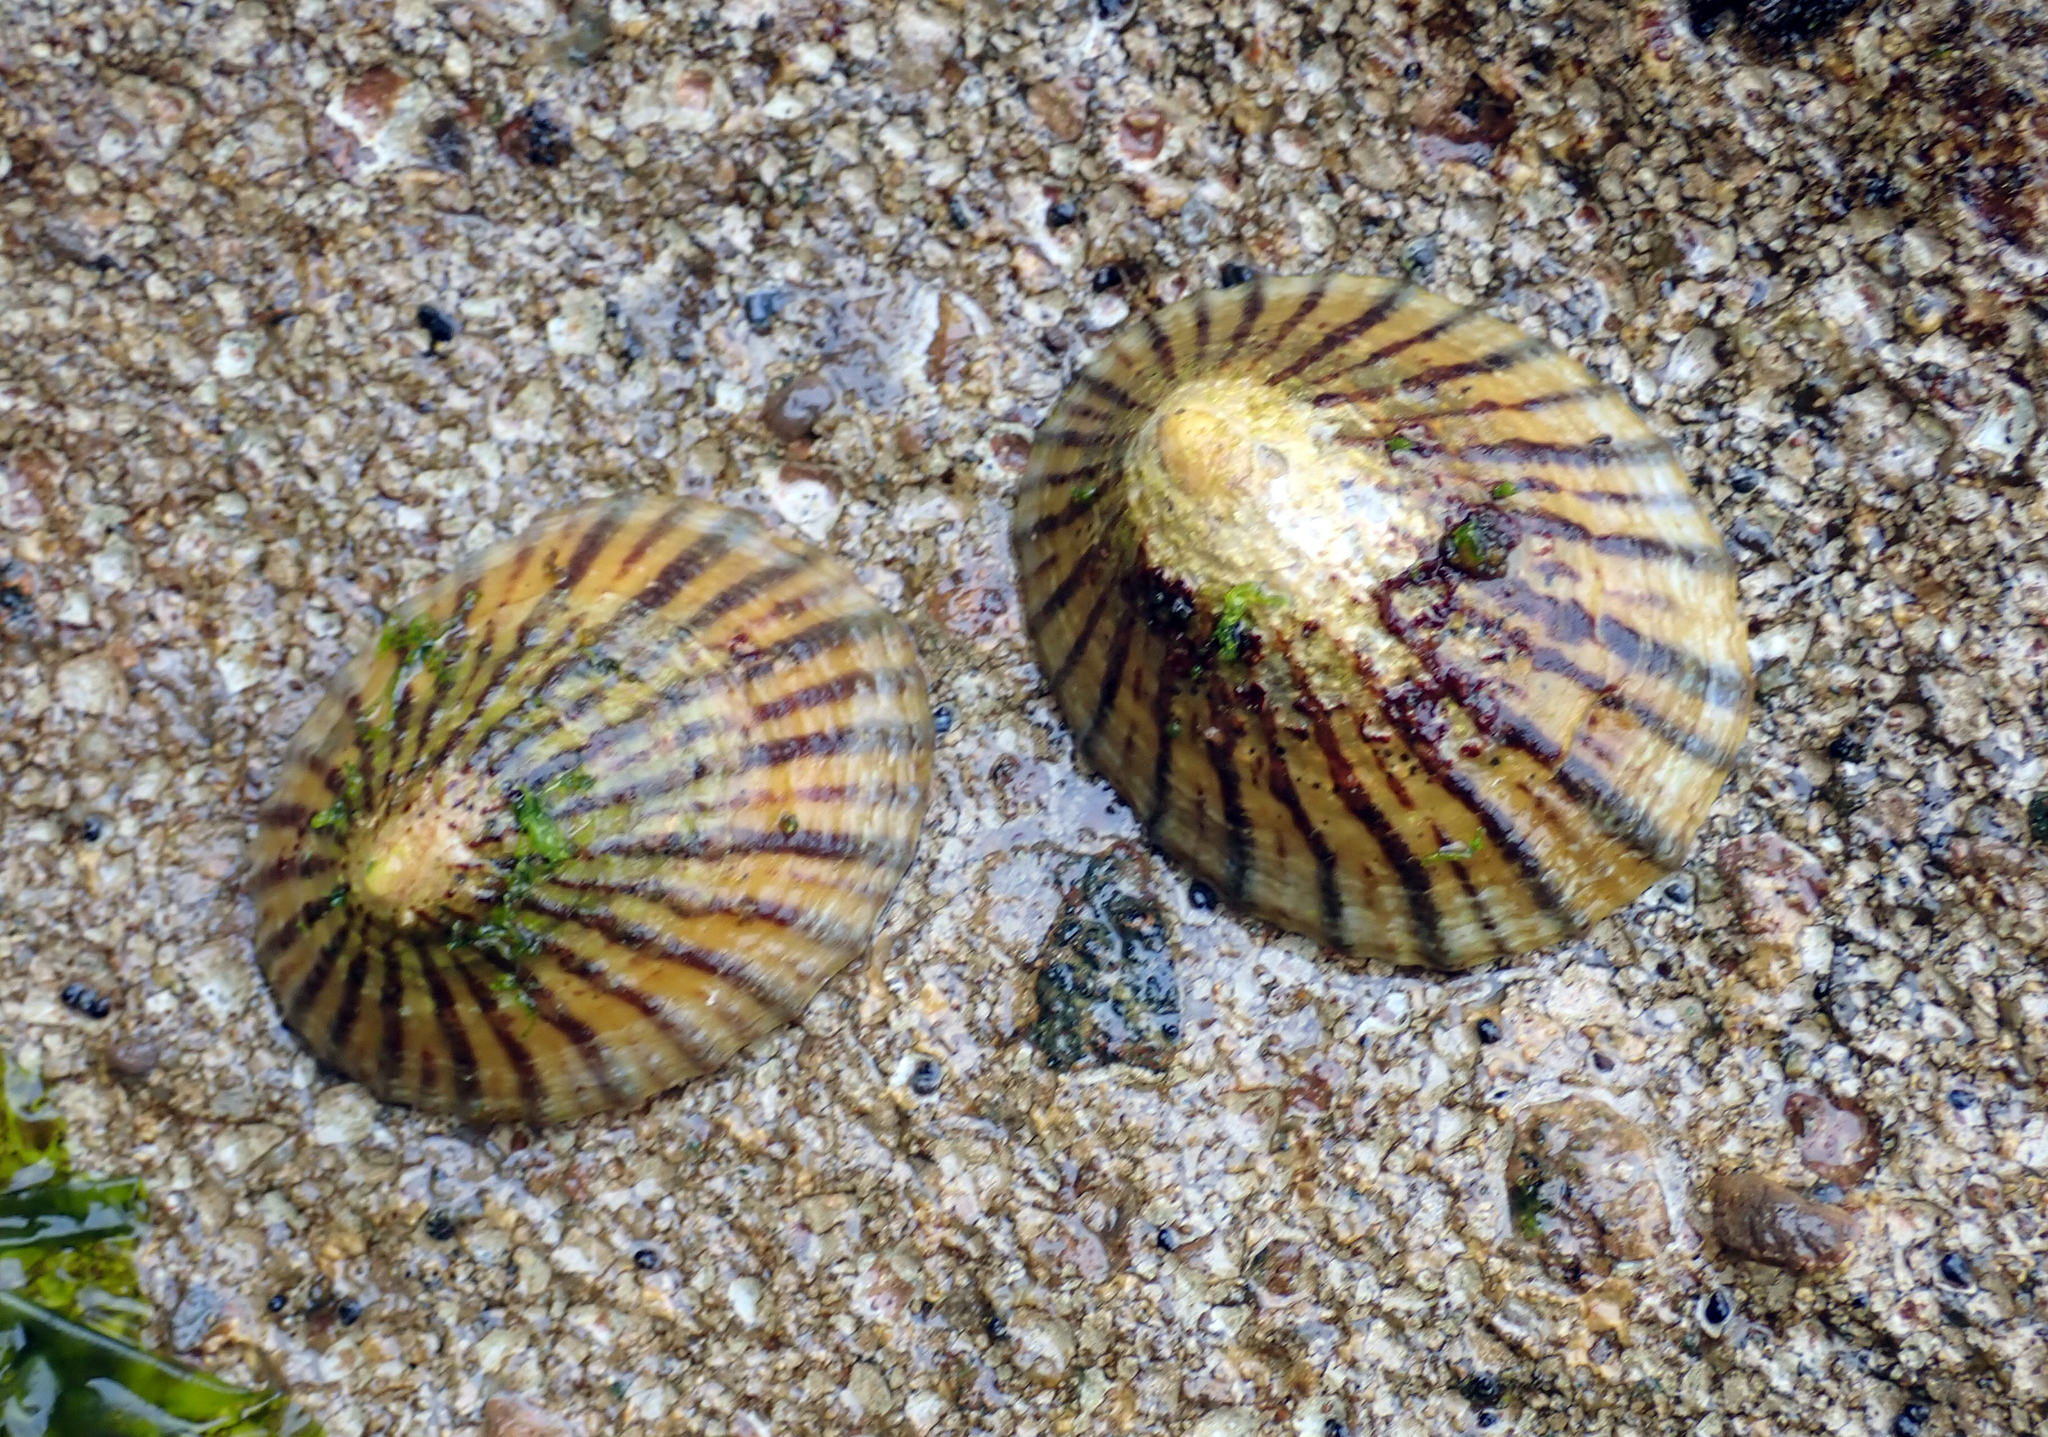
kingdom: Animalia
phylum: Mollusca
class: Gastropoda
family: Nacellidae
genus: Cellana
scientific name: Cellana oliveri
